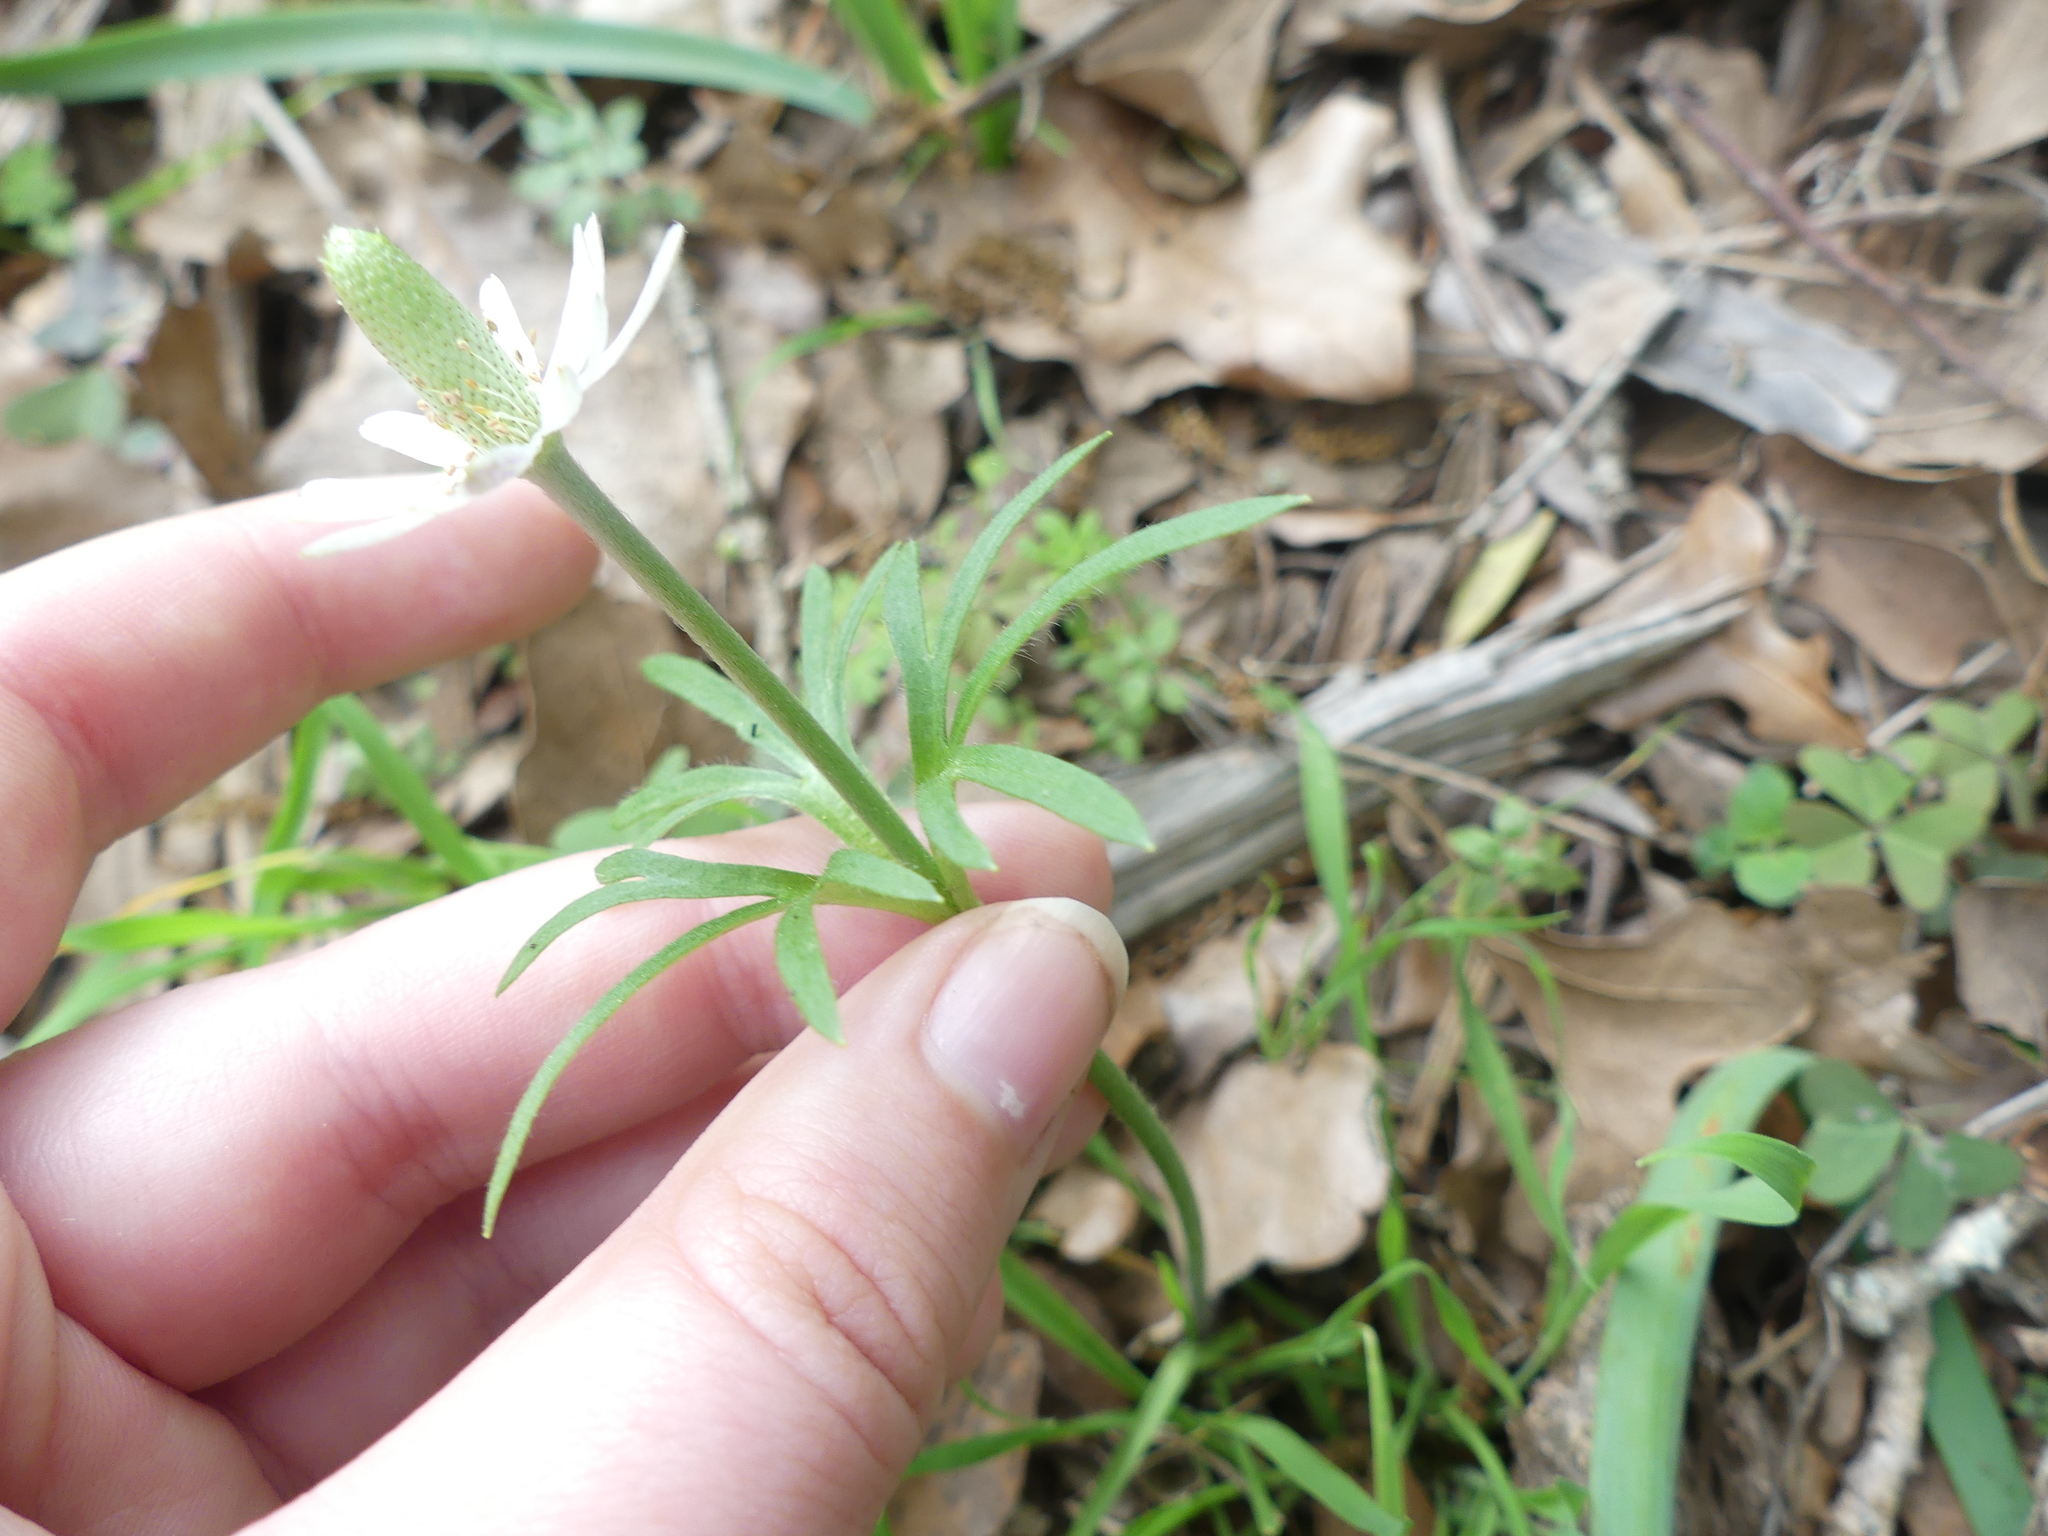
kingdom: Plantae
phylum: Tracheophyta
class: Magnoliopsida
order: Ranunculales
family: Ranunculaceae
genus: Anemone
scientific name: Anemone berlandieri
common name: Ten-petal anemone
